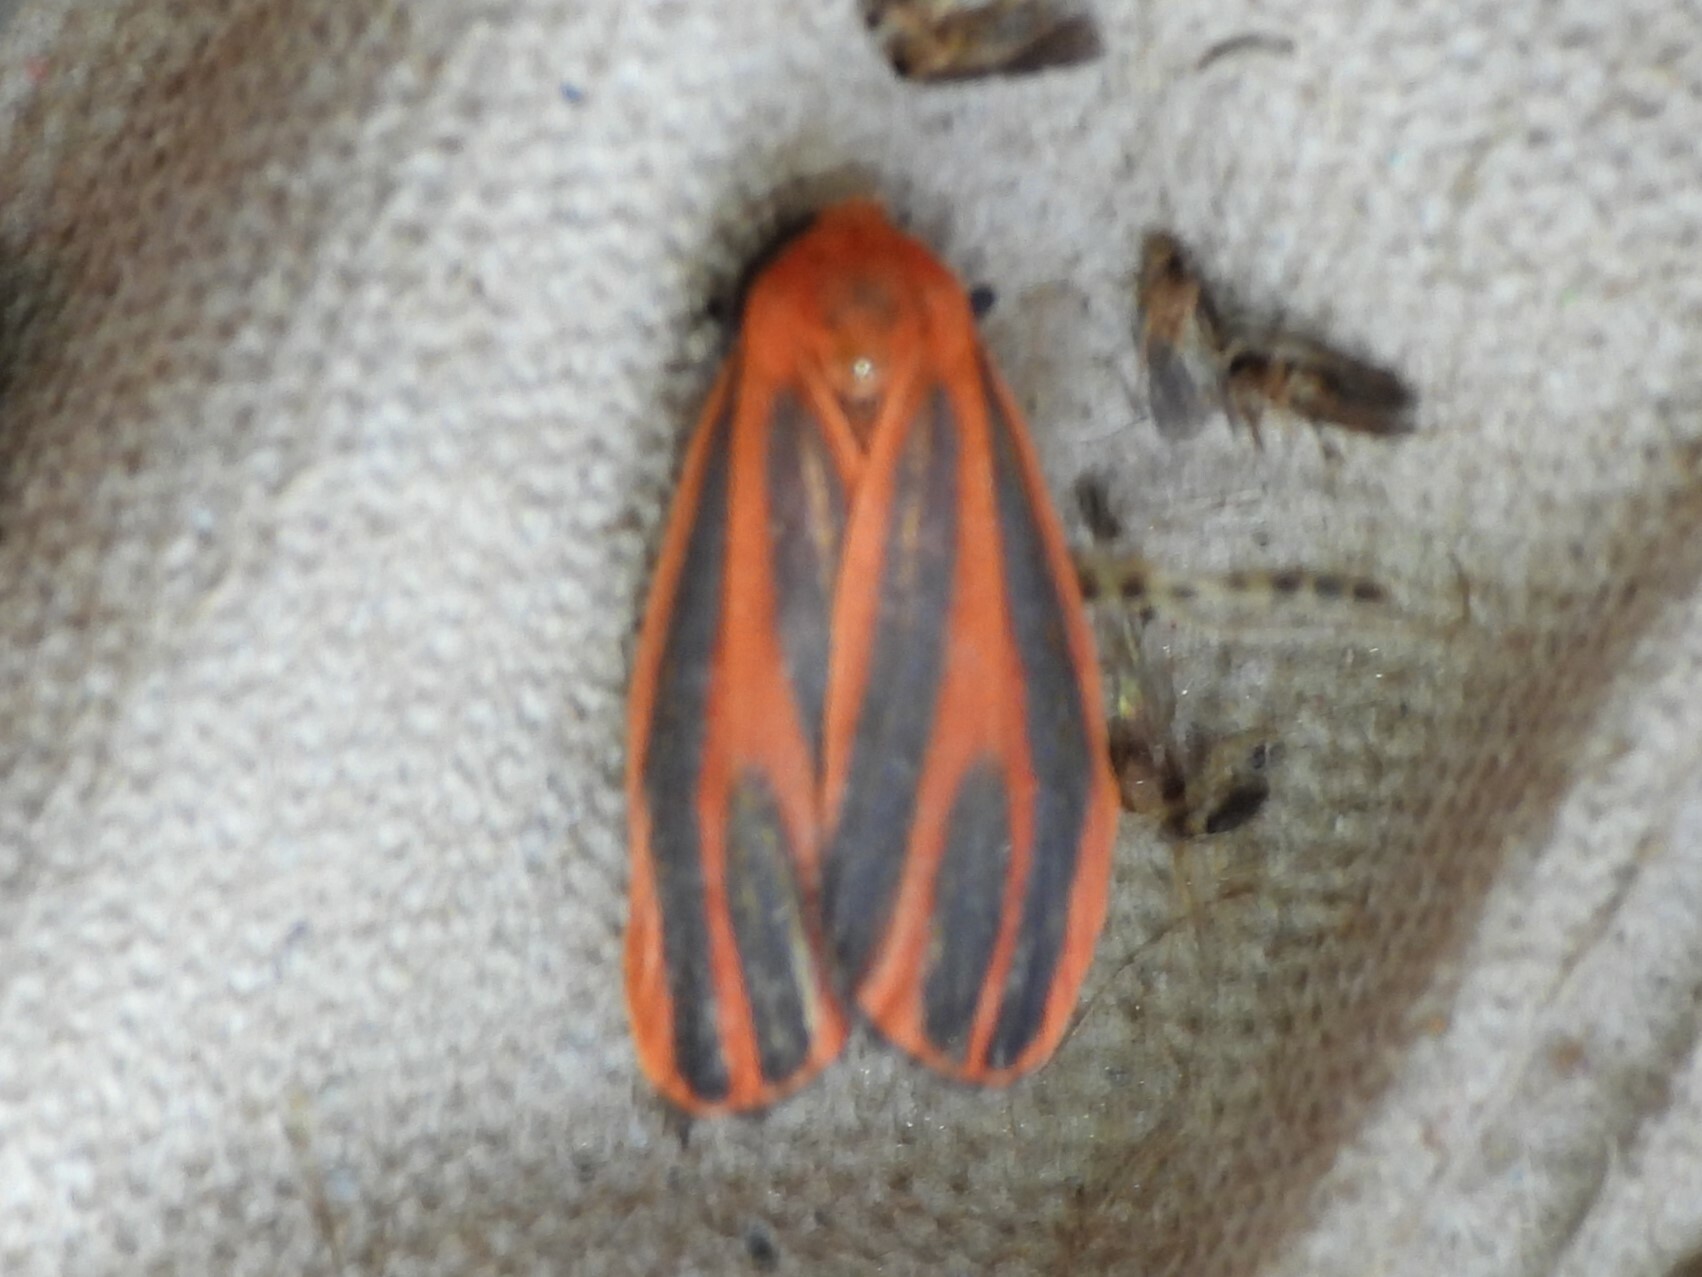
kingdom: Animalia
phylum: Arthropoda
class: Insecta
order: Lepidoptera
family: Erebidae
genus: Hypoprepia
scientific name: Hypoprepia miniata
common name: Scarlet-winged lichen moth
